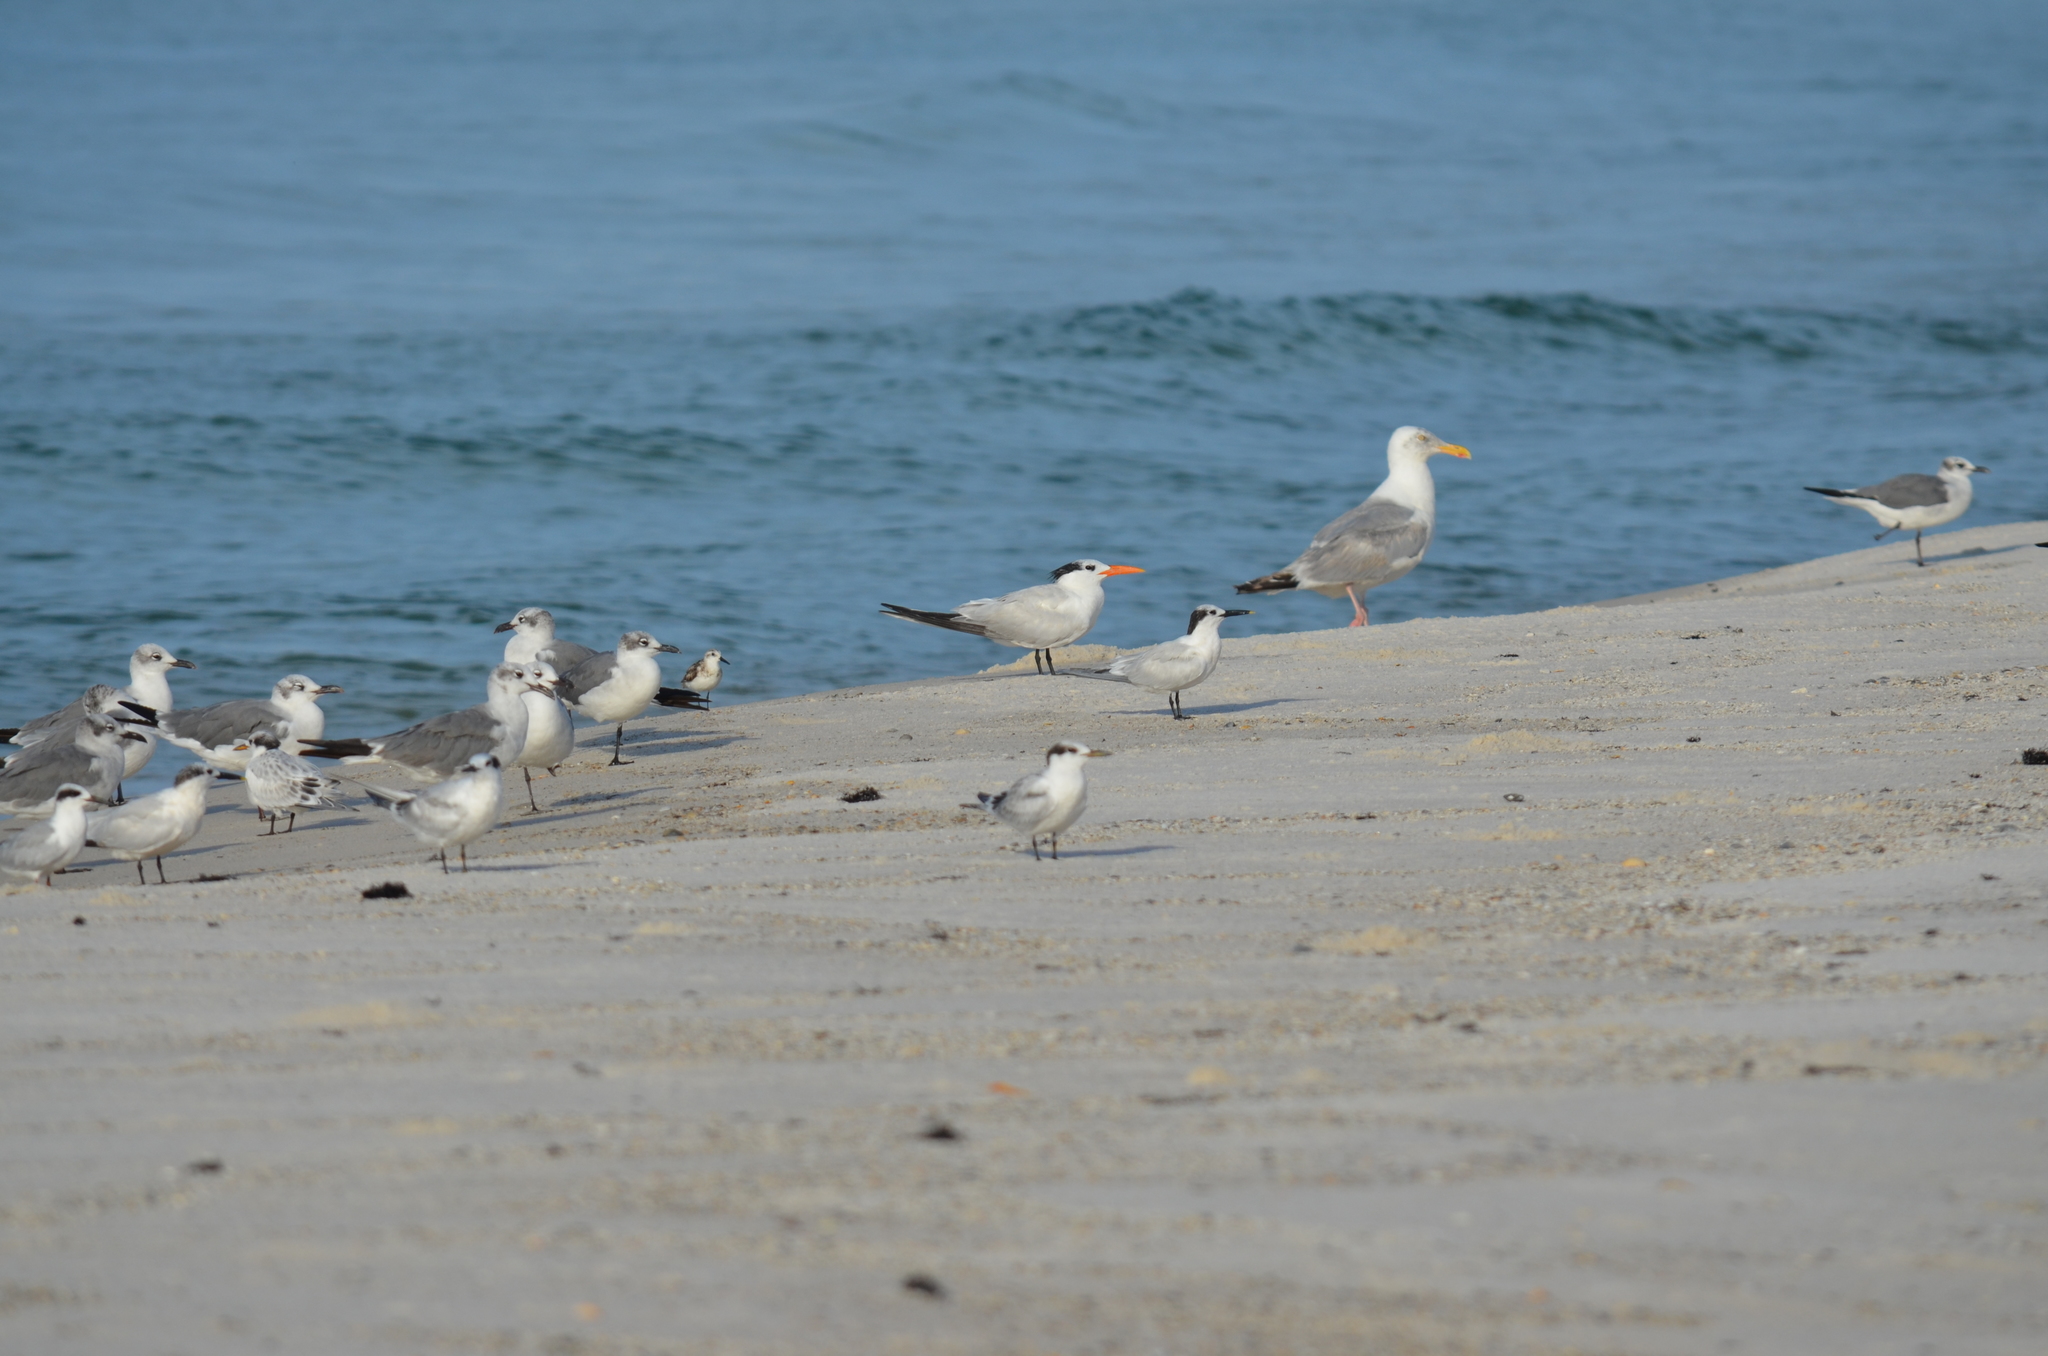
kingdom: Animalia
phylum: Chordata
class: Aves
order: Charadriiformes
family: Laridae
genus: Thalasseus
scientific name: Thalasseus maximus
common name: Royal tern
